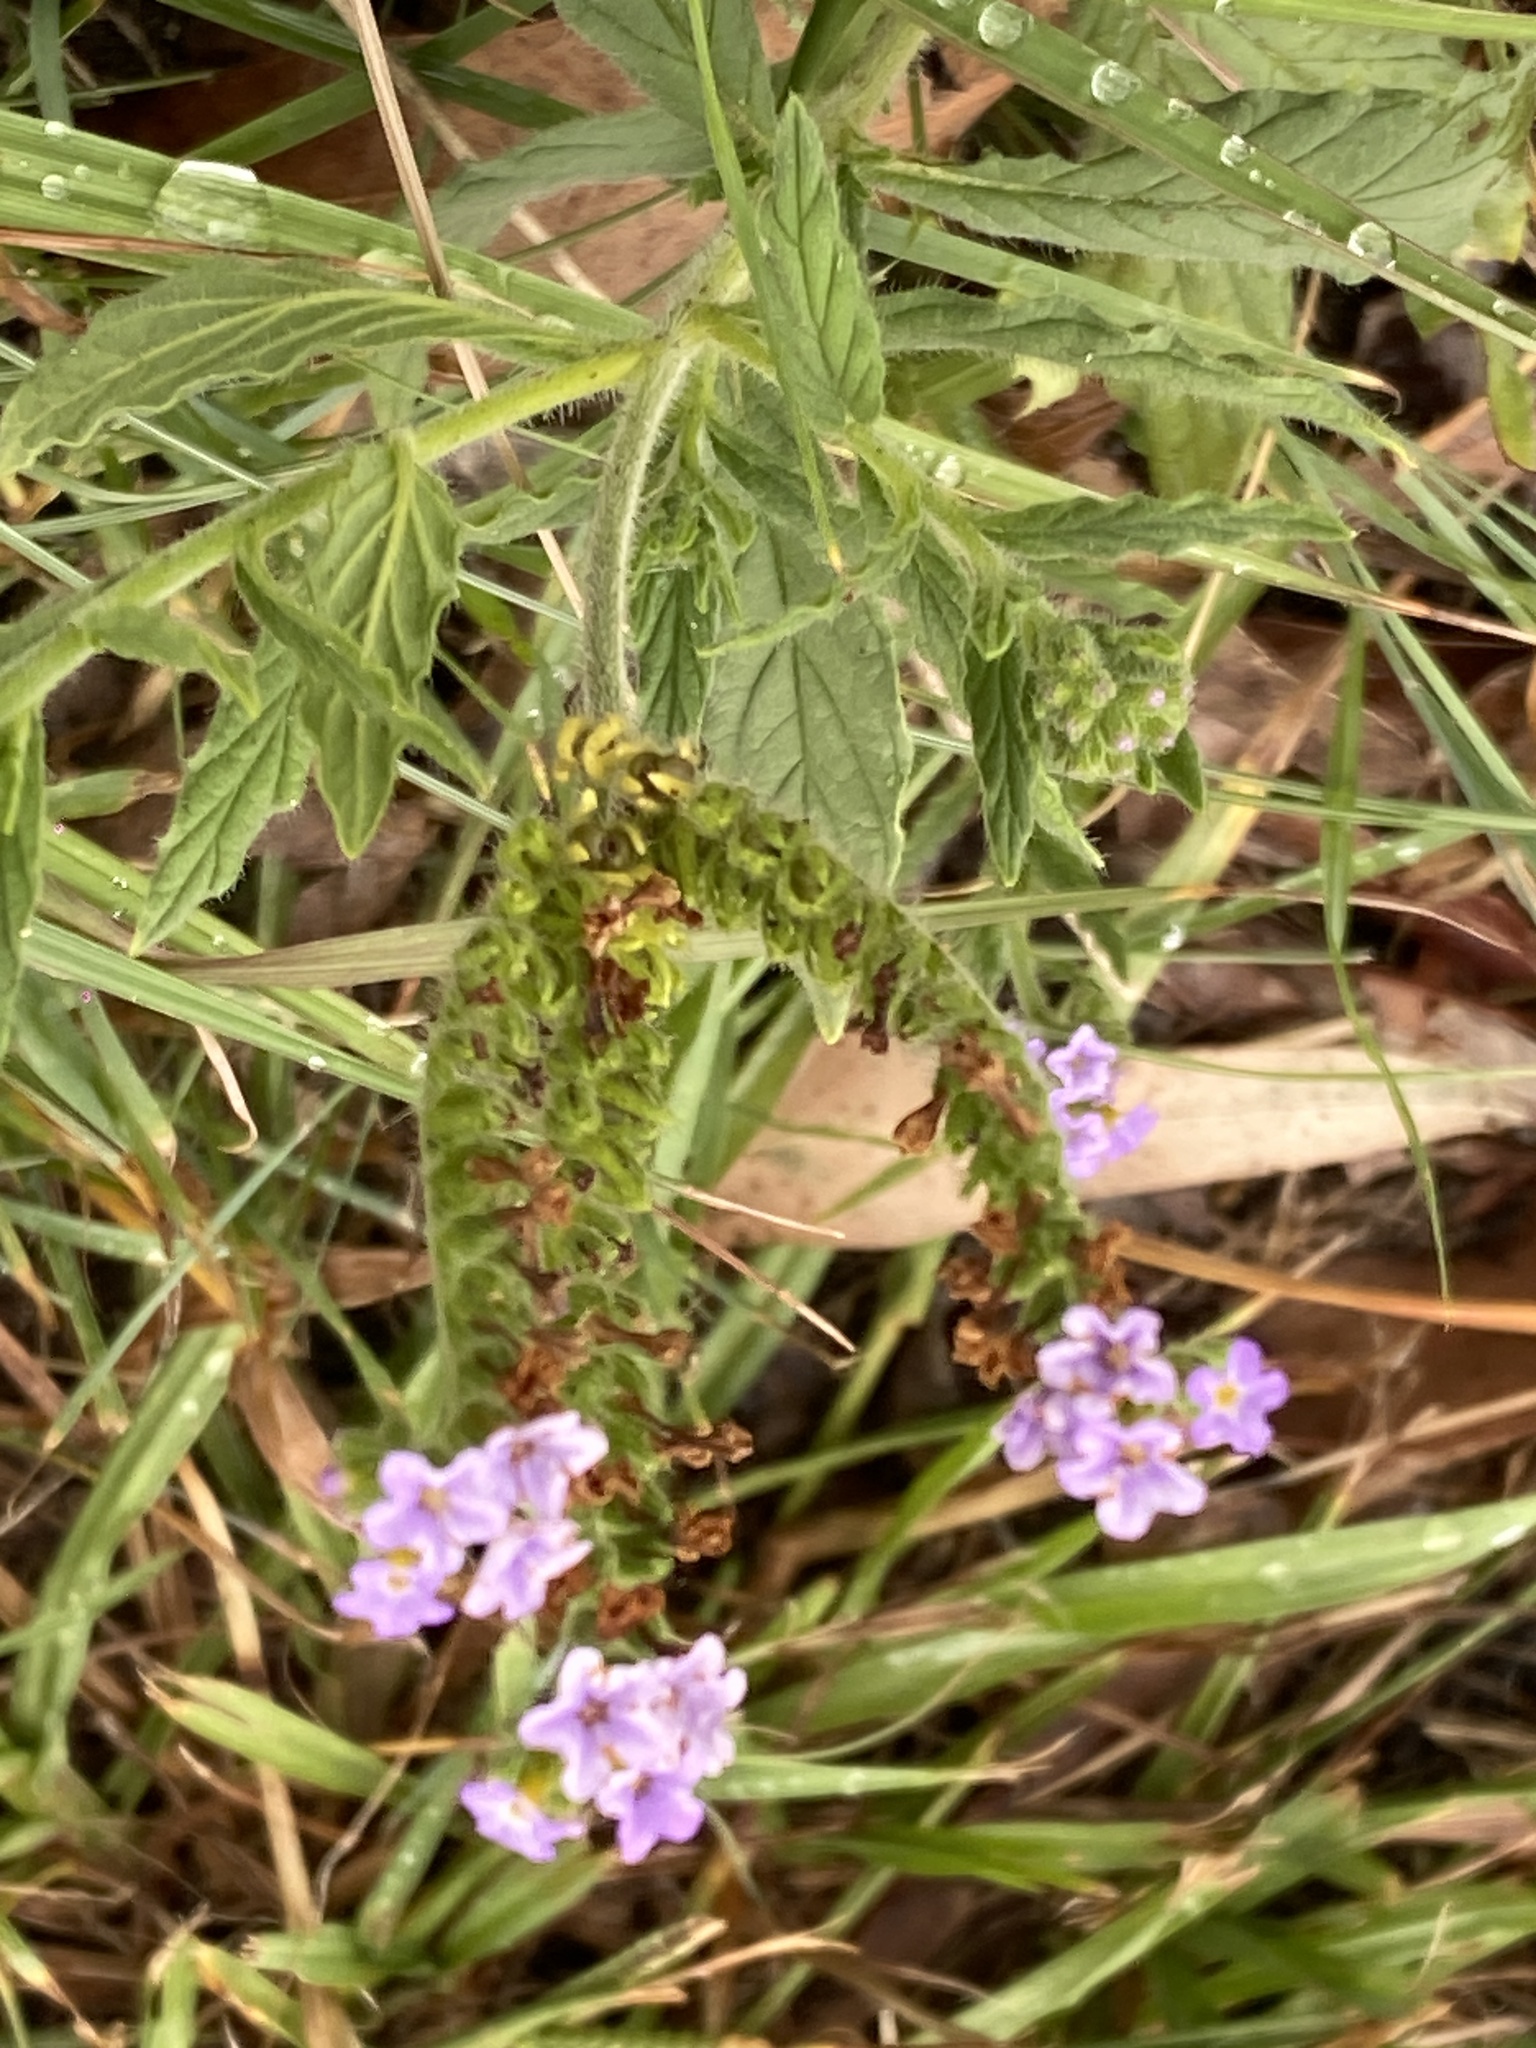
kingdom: Plantae
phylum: Tracheophyta
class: Magnoliopsida
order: Boraginales
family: Heliotropiaceae
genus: Heliotropium
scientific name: Heliotropium amplexicaule
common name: Clasping heliotrope
